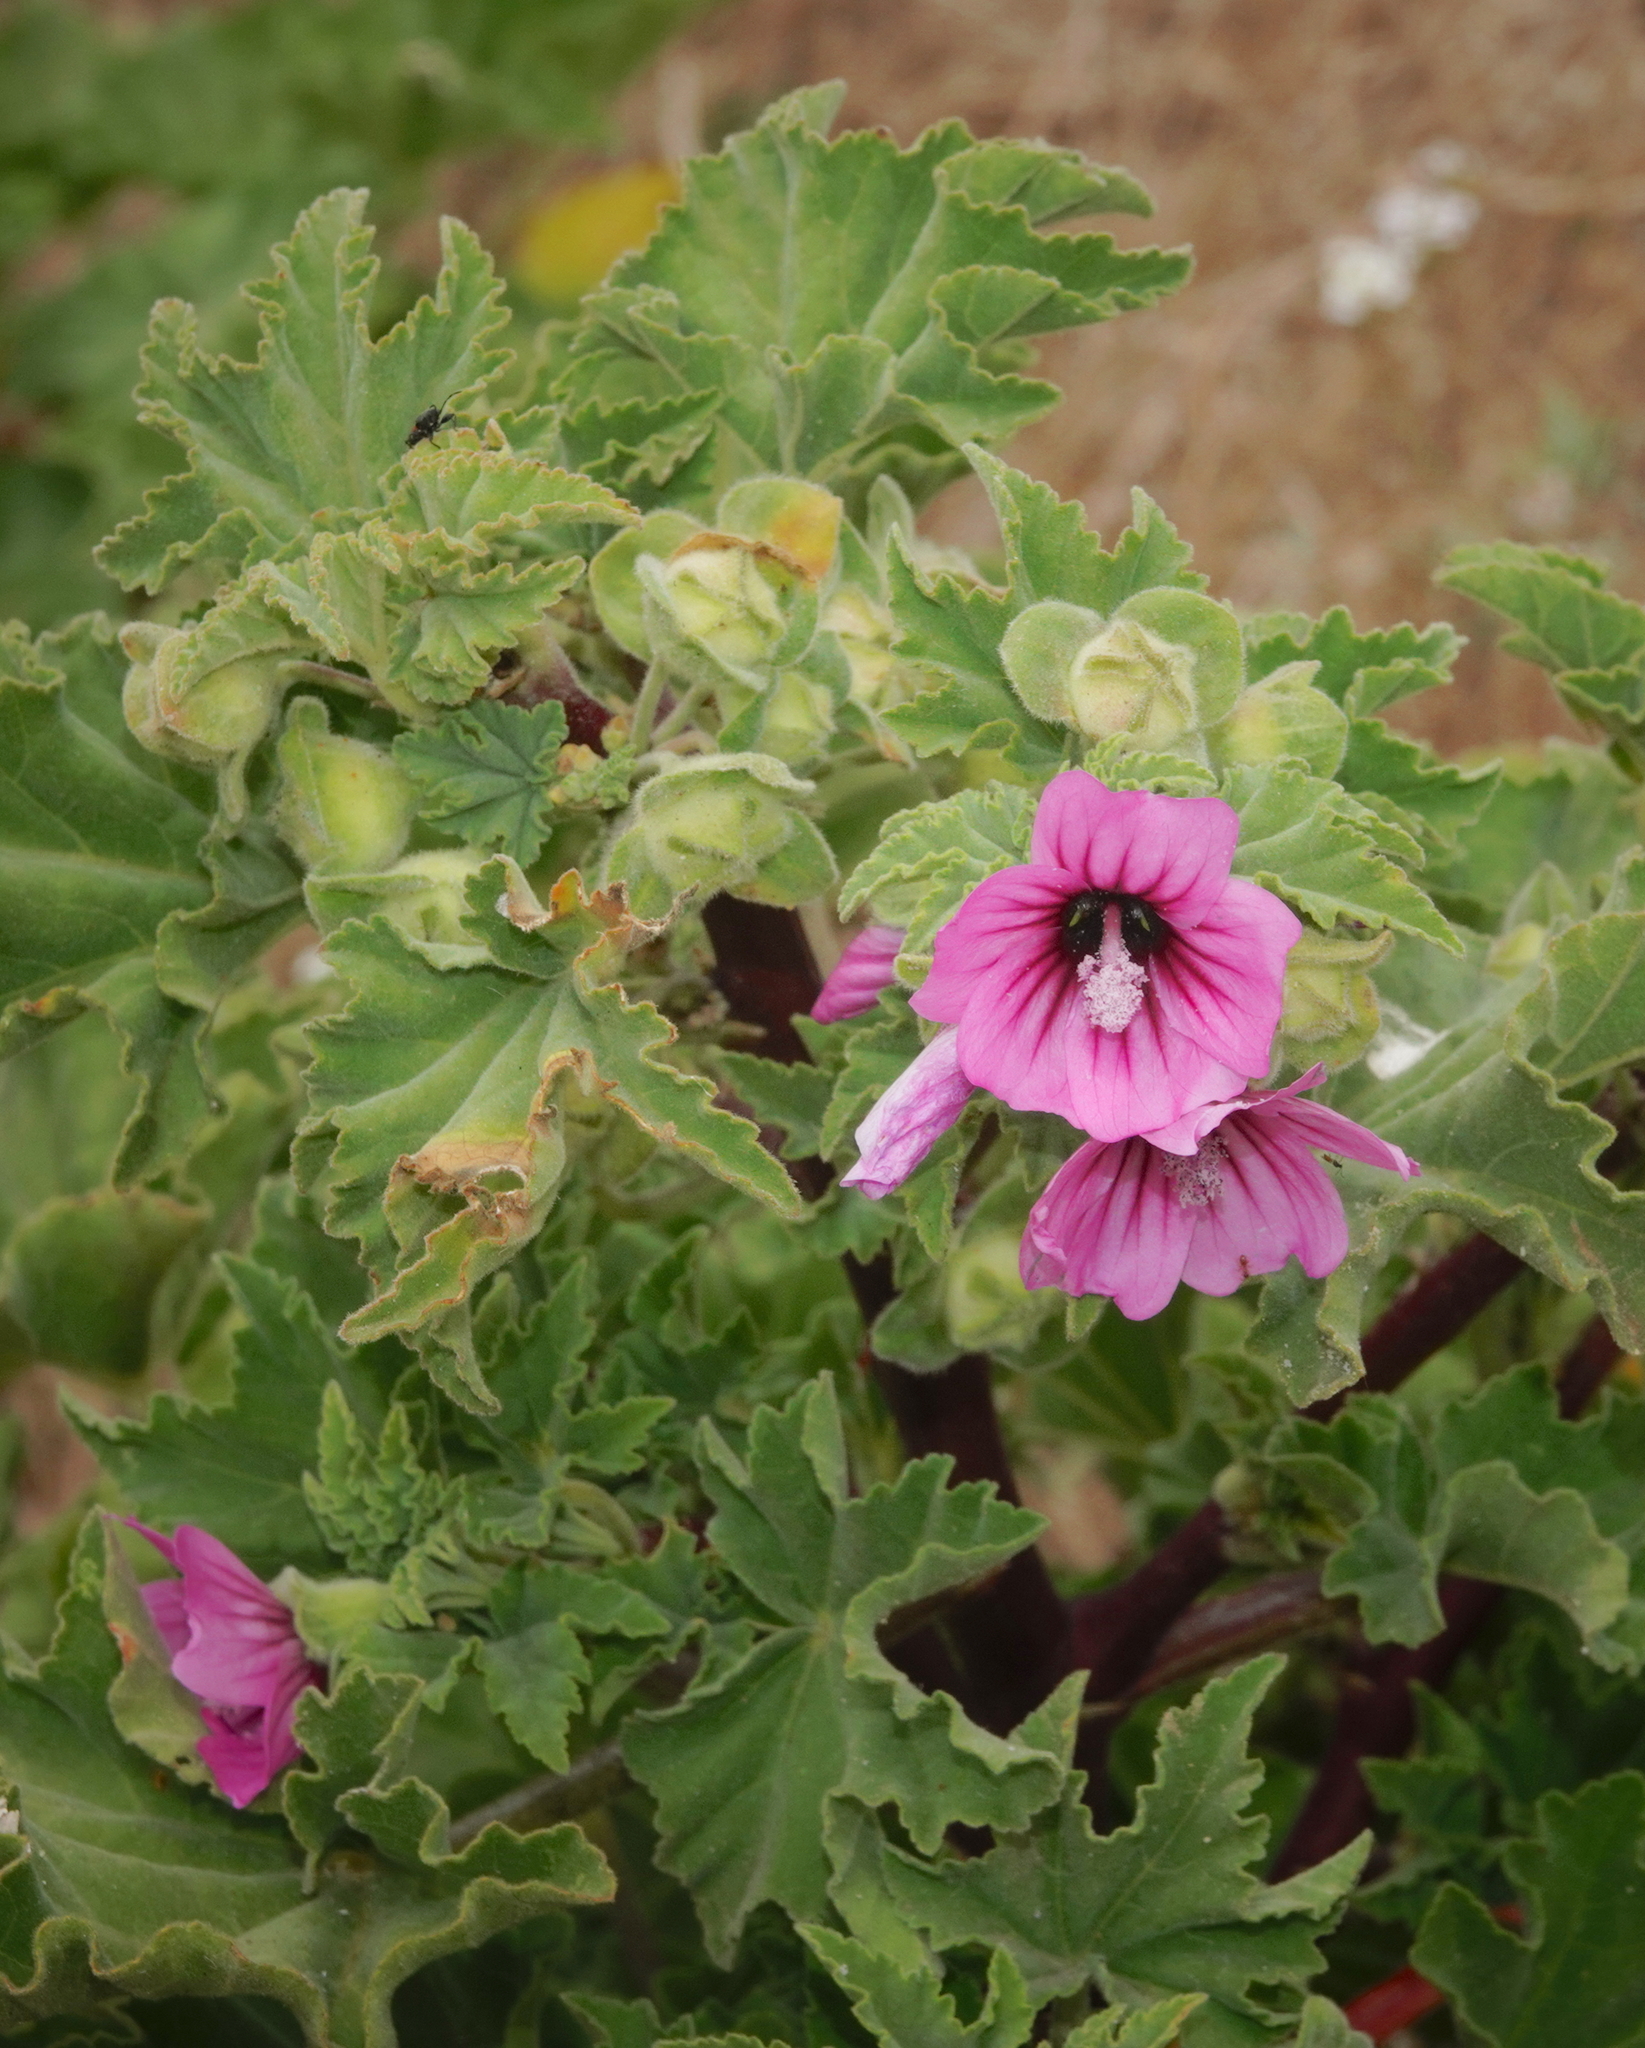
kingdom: Plantae
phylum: Tracheophyta
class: Magnoliopsida
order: Malvales
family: Malvaceae
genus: Malva
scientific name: Malva arborea
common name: Tree mallow
